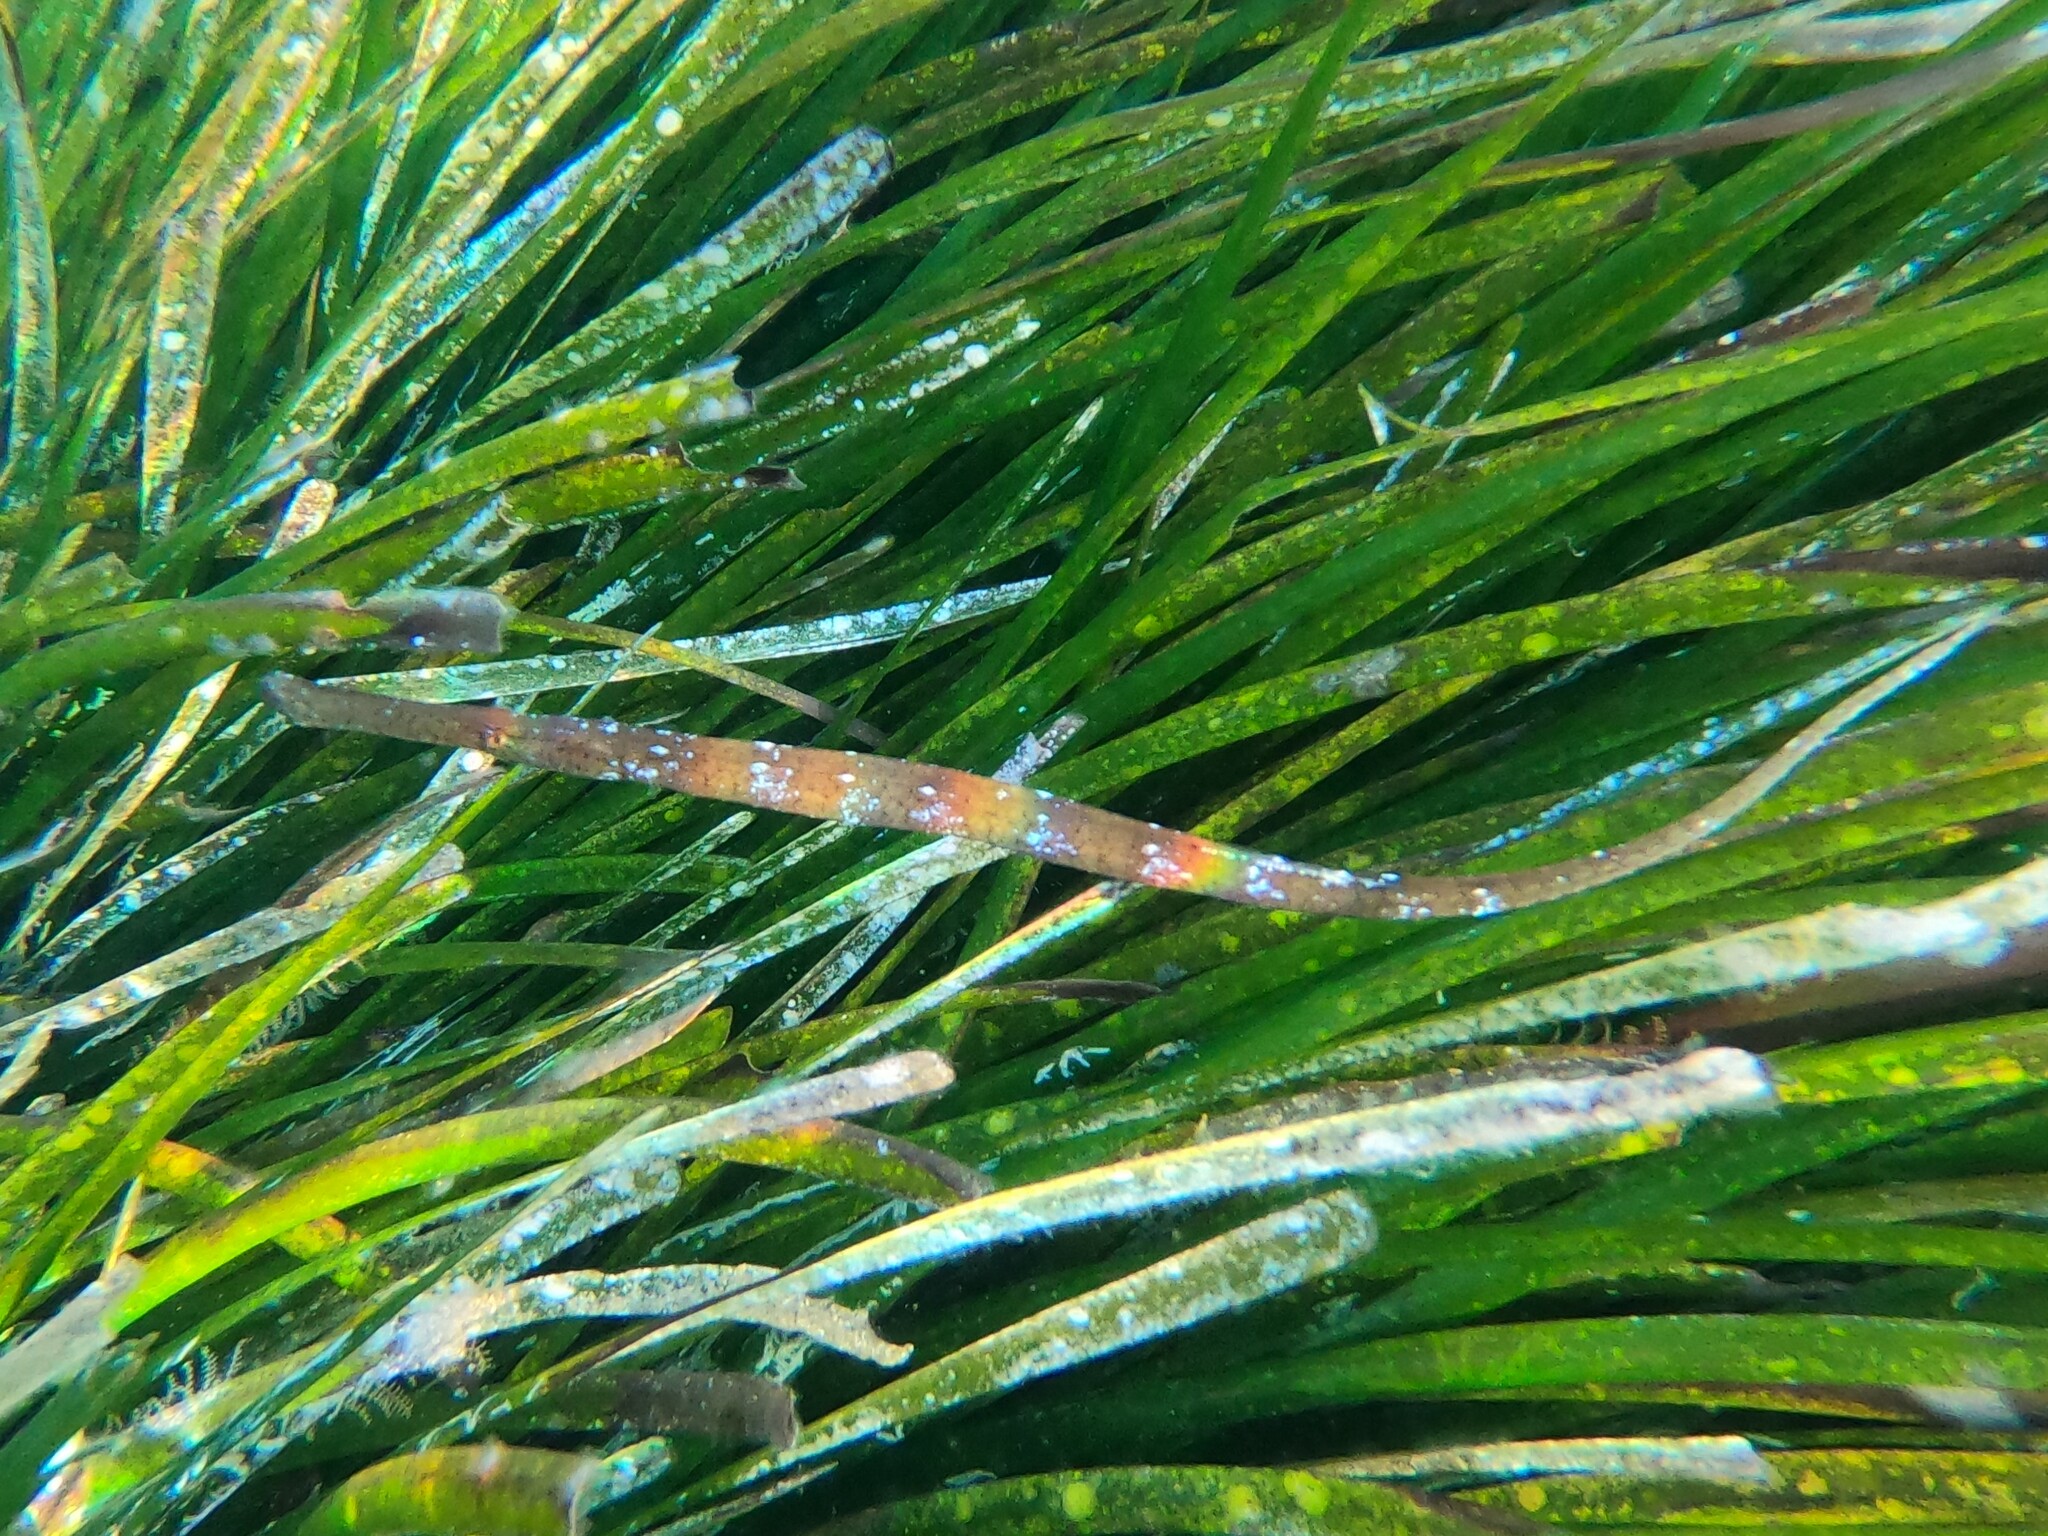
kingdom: Animalia
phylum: Chordata
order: Syngnathiformes
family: Syngnathidae
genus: Syngnathus
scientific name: Syngnathus typhle
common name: Deep-snouted pipefish
